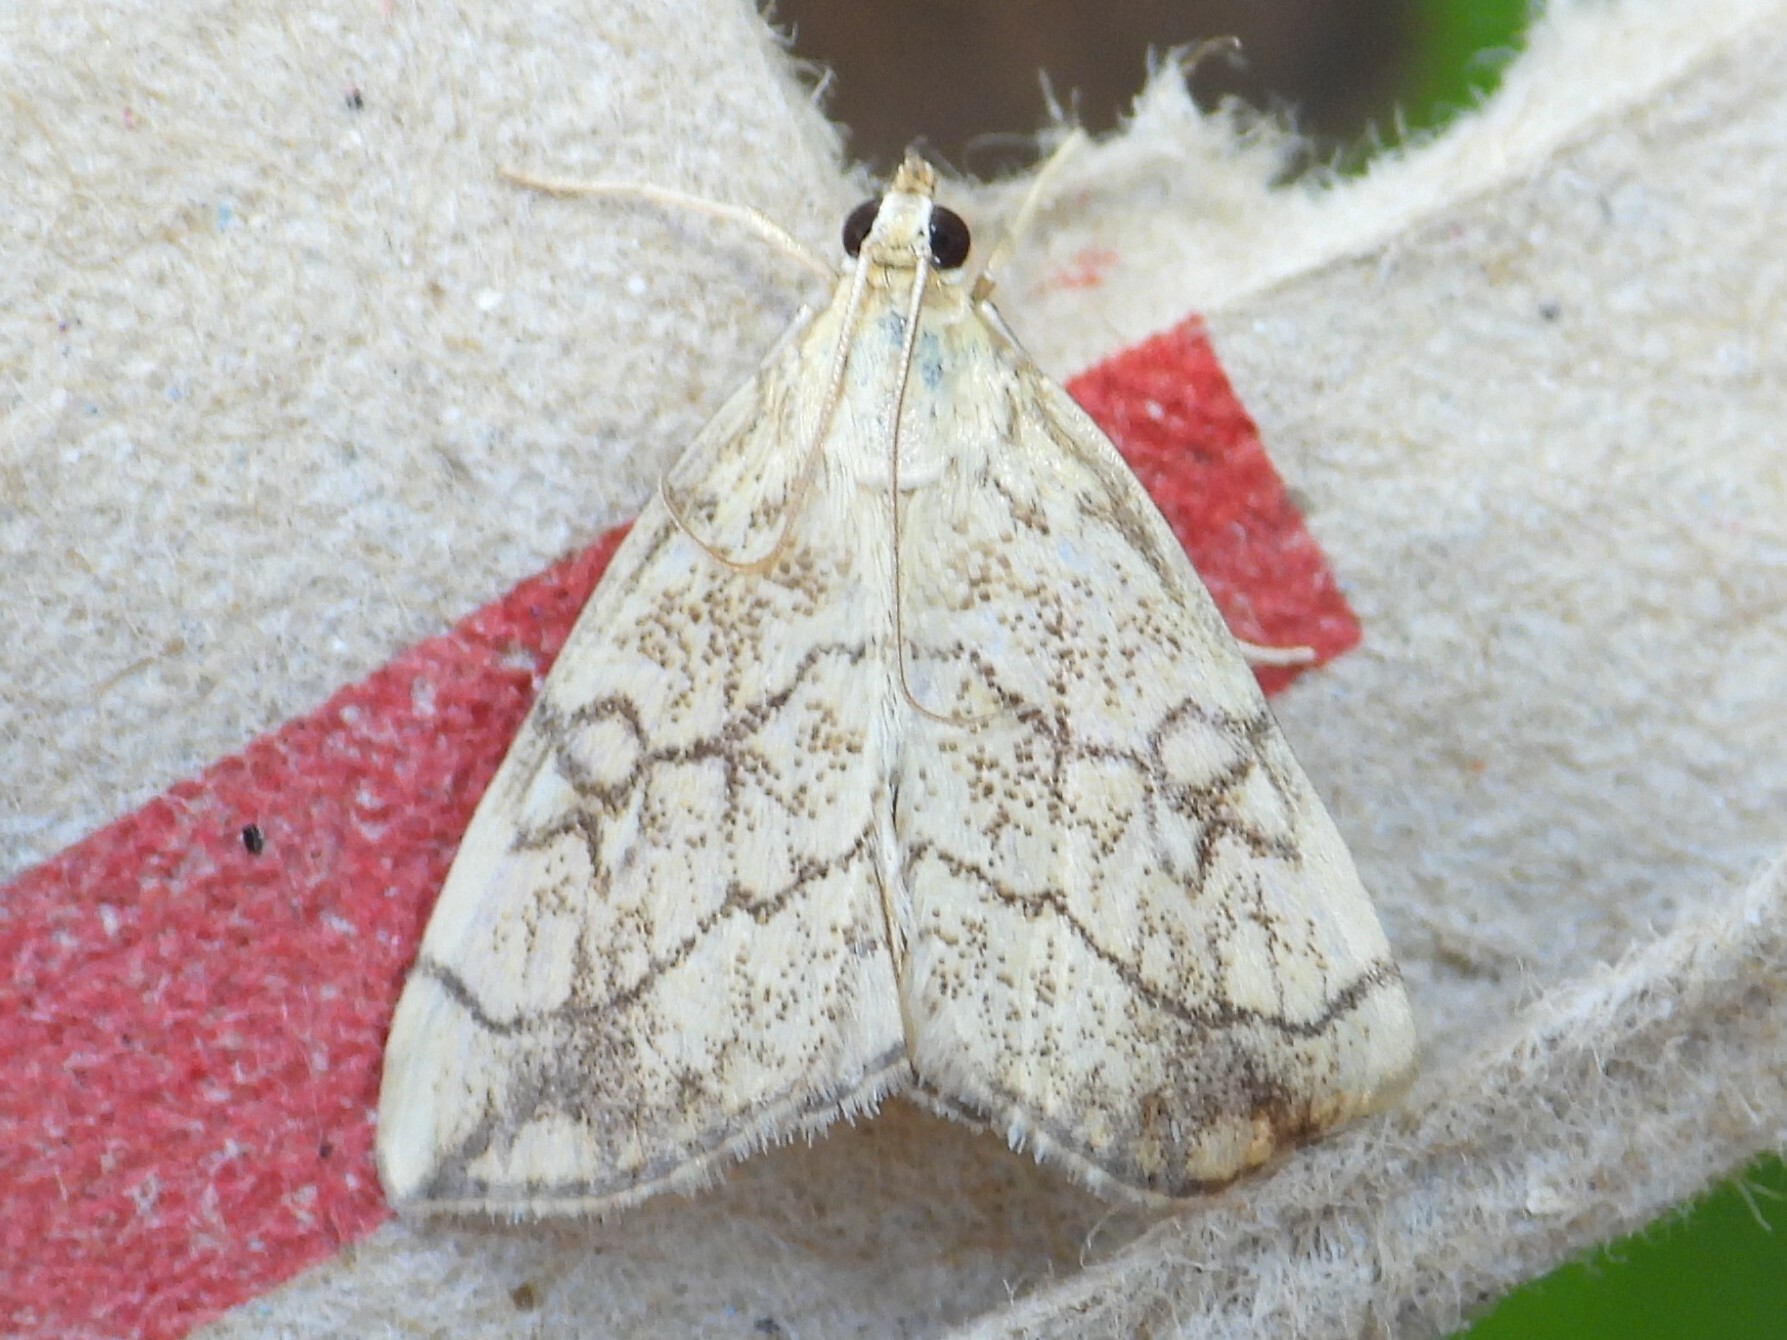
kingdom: Animalia
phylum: Arthropoda
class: Insecta
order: Lepidoptera
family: Crambidae
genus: Evergestis
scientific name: Evergestis pallidata
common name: Chequered pearl
